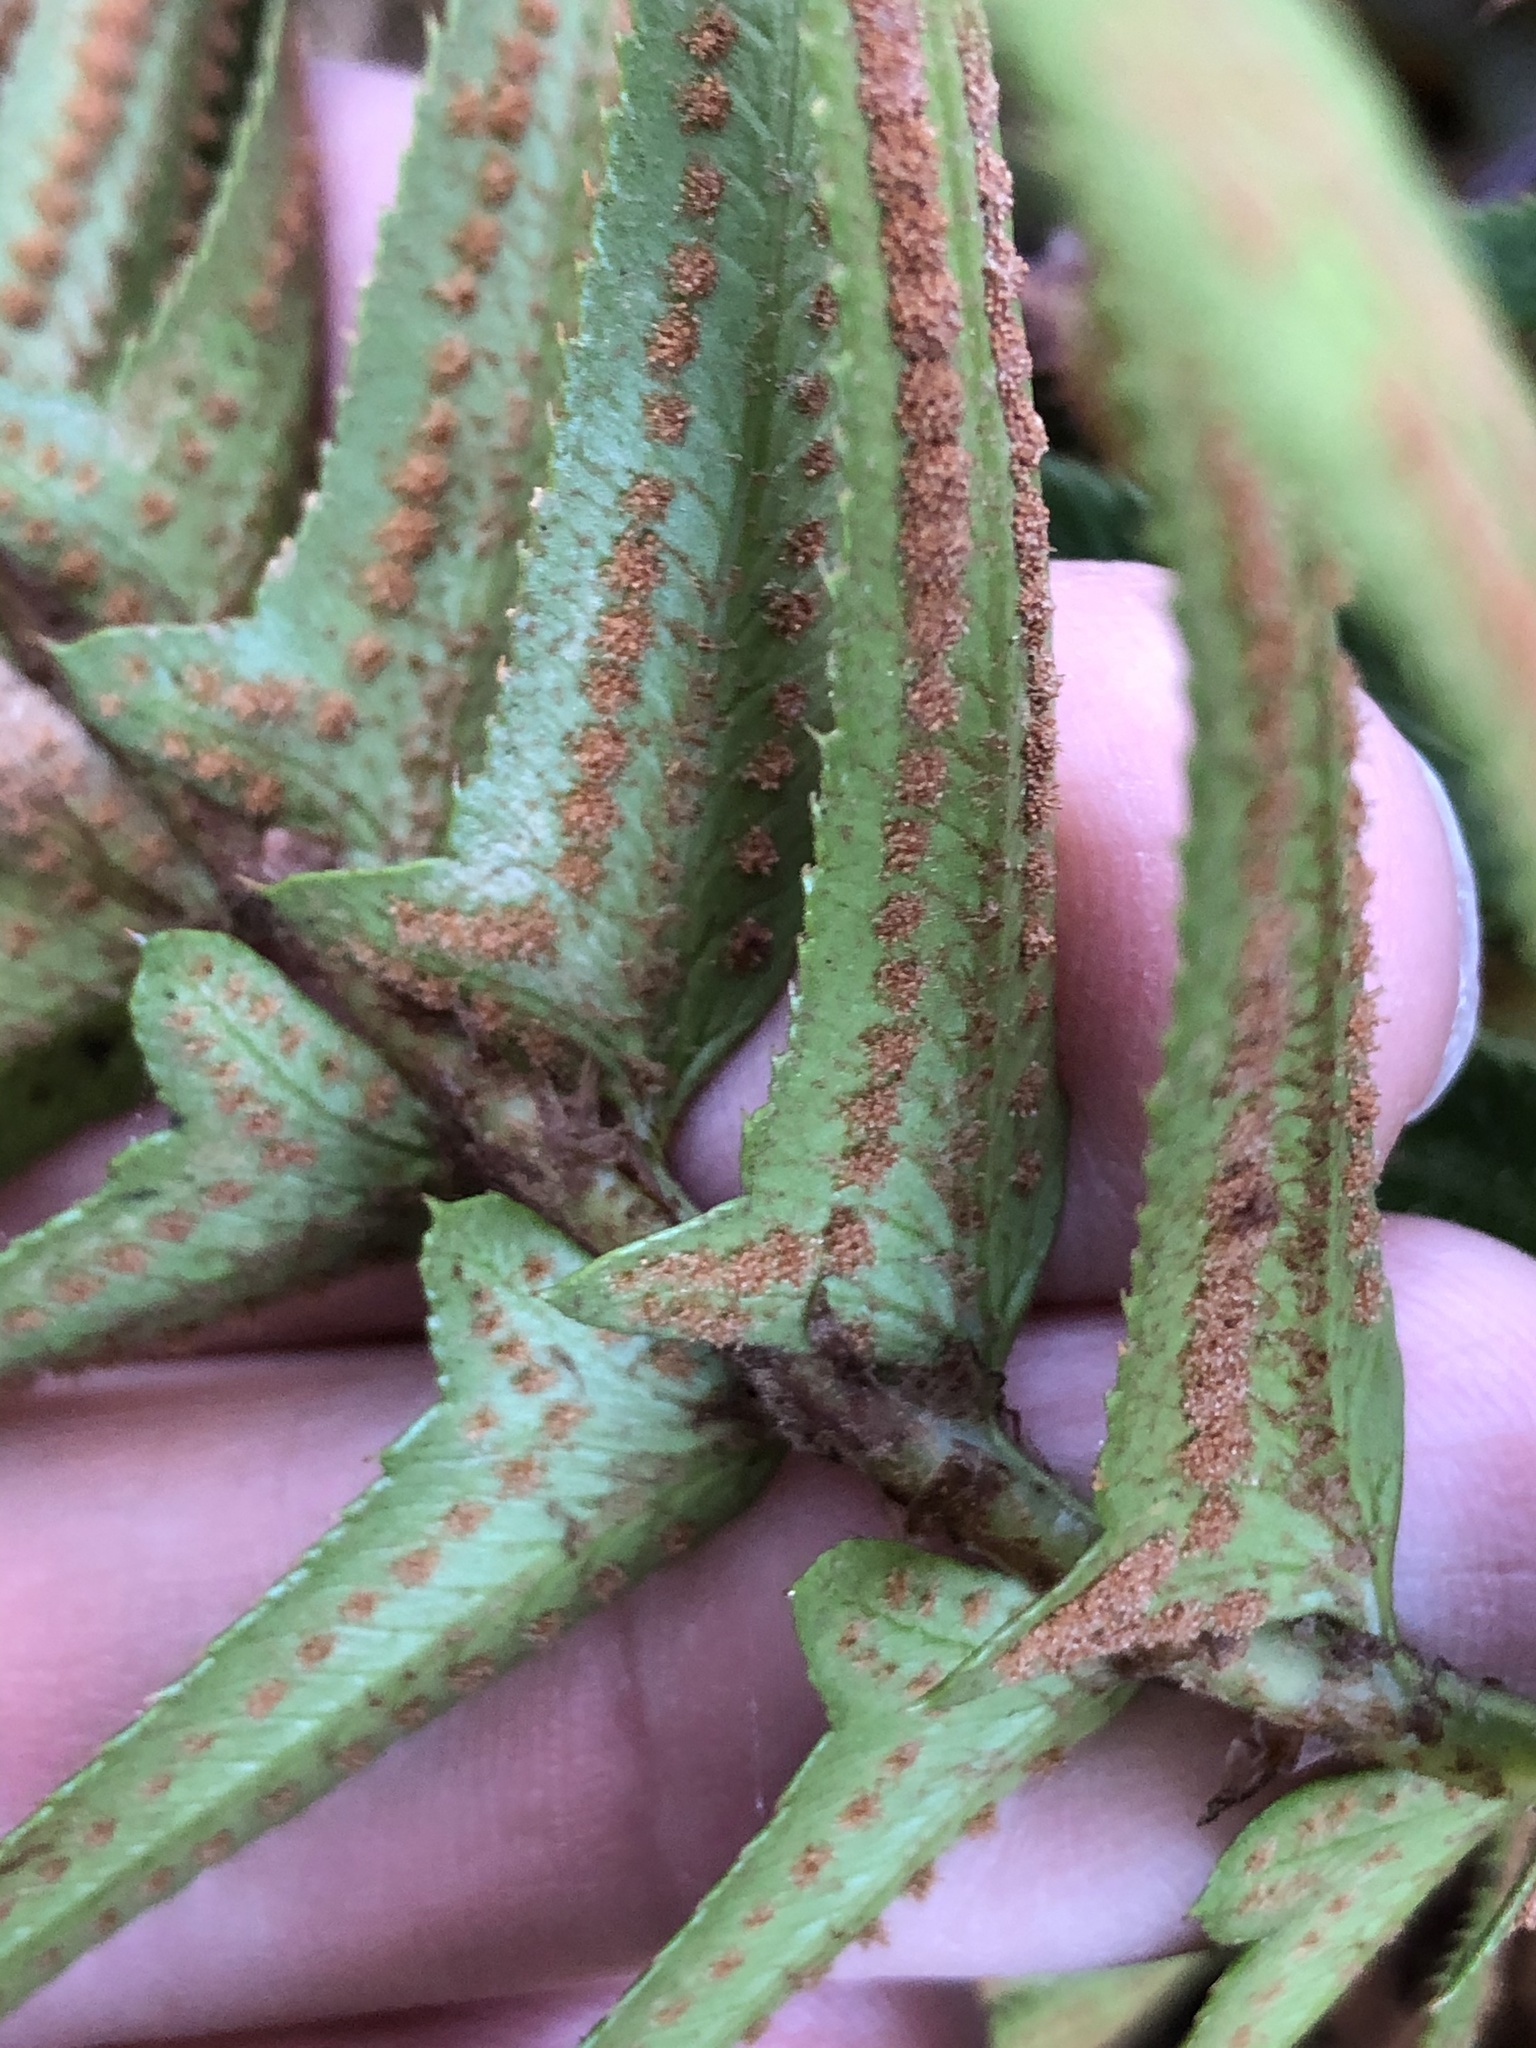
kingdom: Plantae
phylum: Tracheophyta
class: Polypodiopsida
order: Polypodiales
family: Dryopteridaceae
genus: Polystichum
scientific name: Polystichum munitum
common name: Western sword-fern
